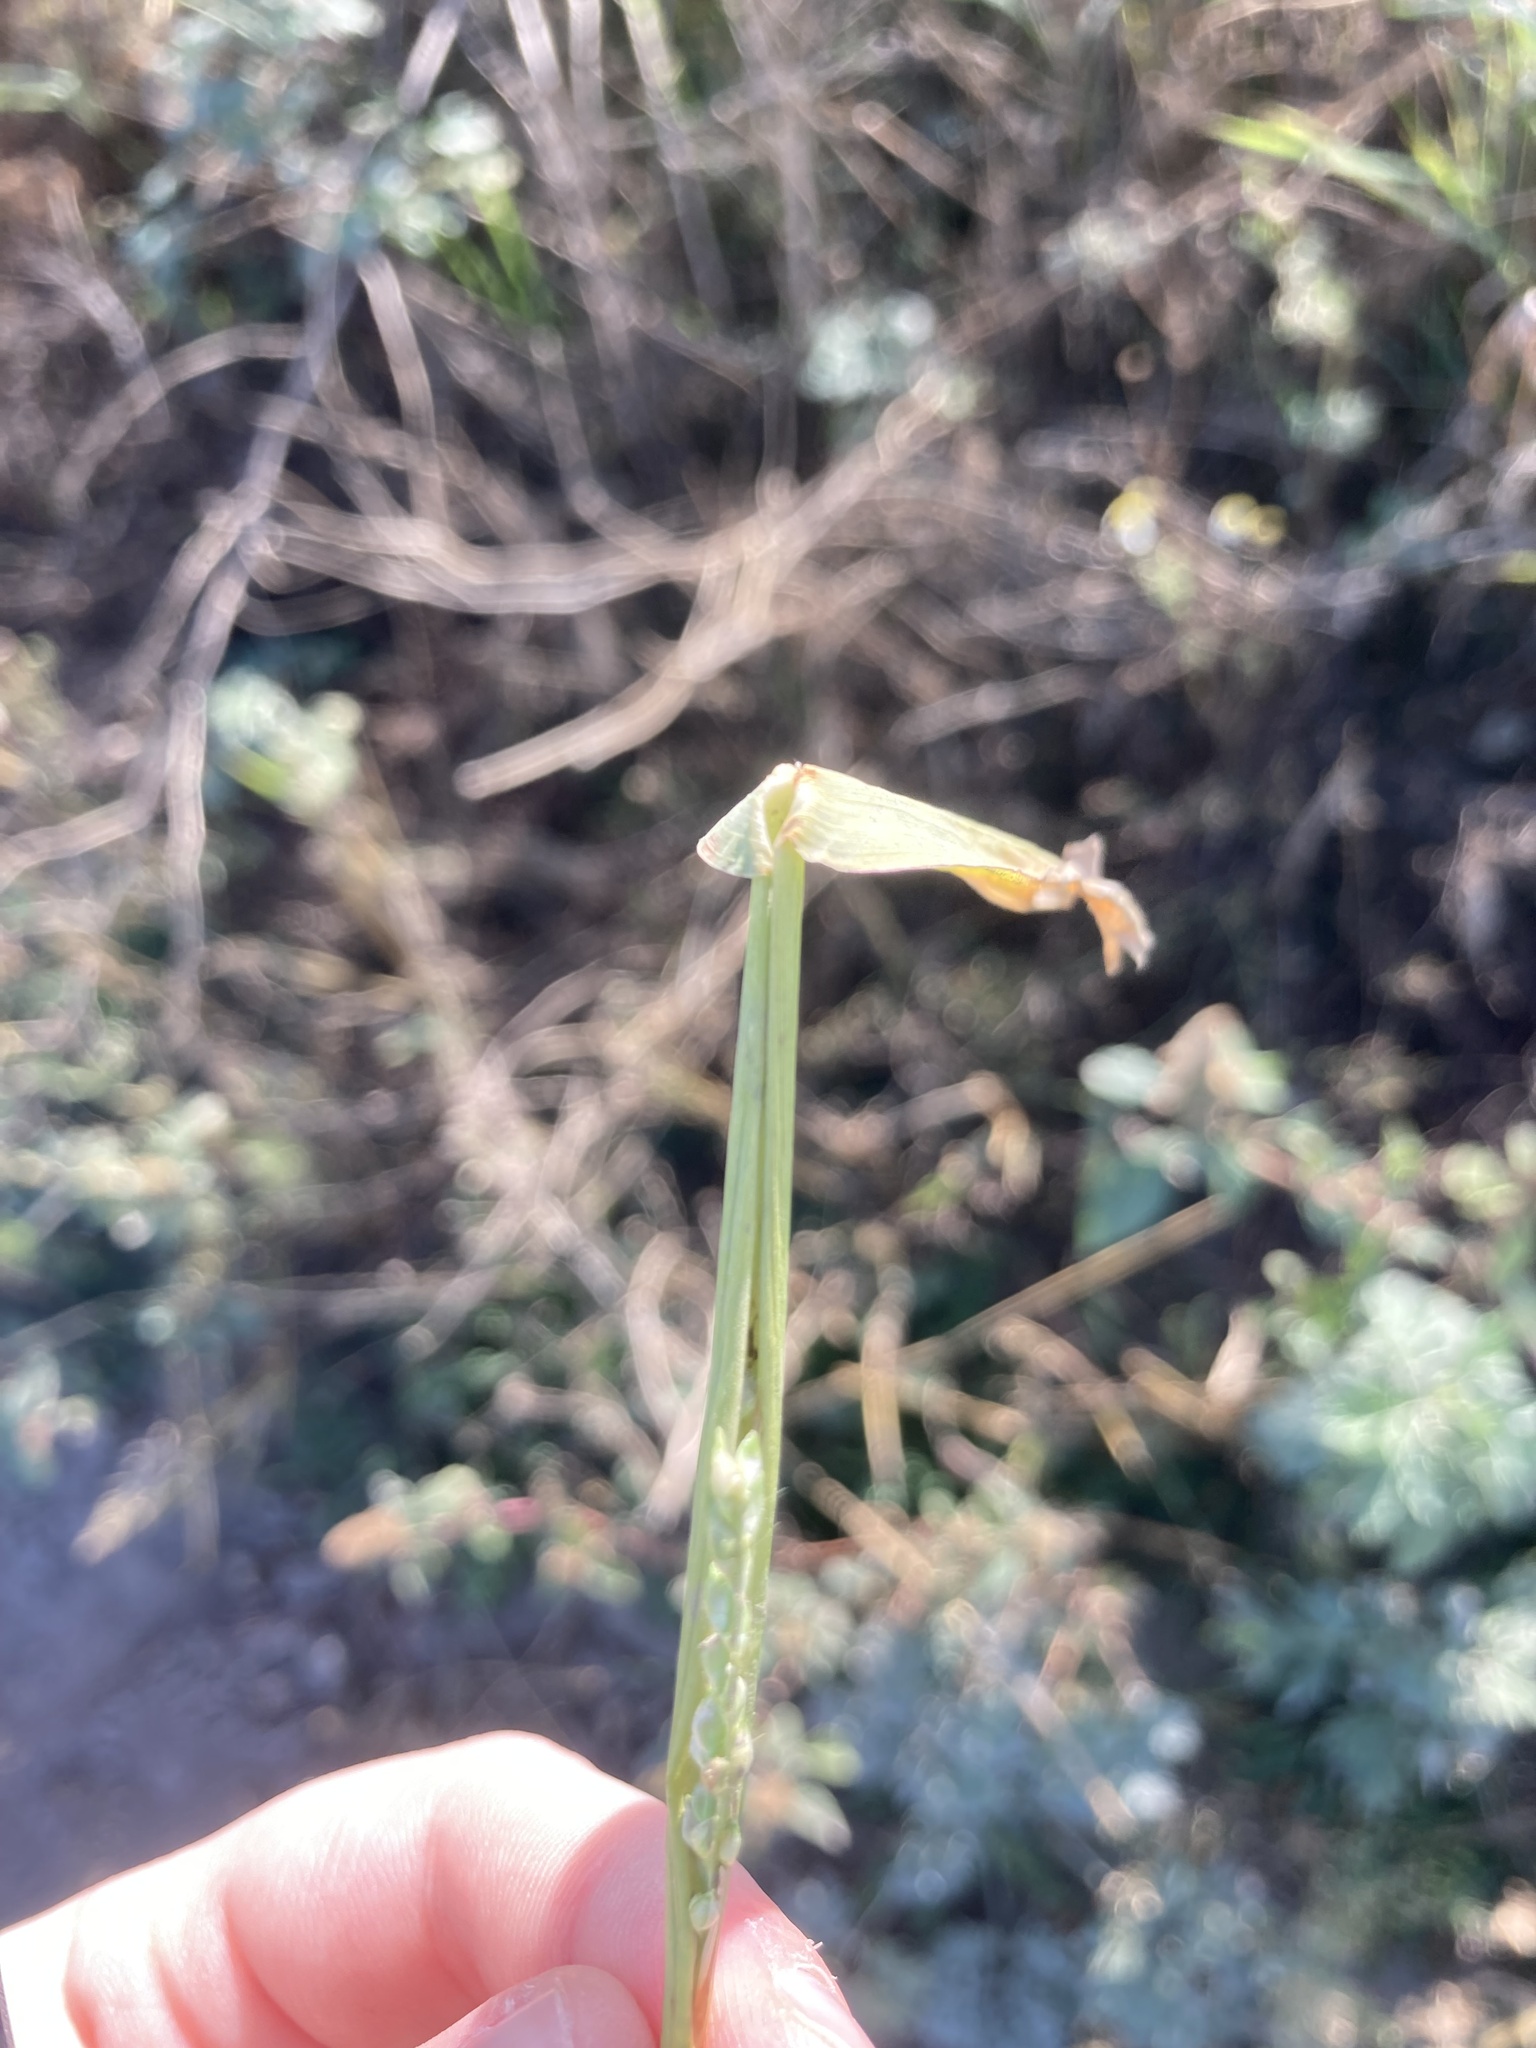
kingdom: Plantae
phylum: Tracheophyta
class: Liliopsida
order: Poales
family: Poaceae
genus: Echinochloa
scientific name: Echinochloa crus-galli
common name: Cockspur
